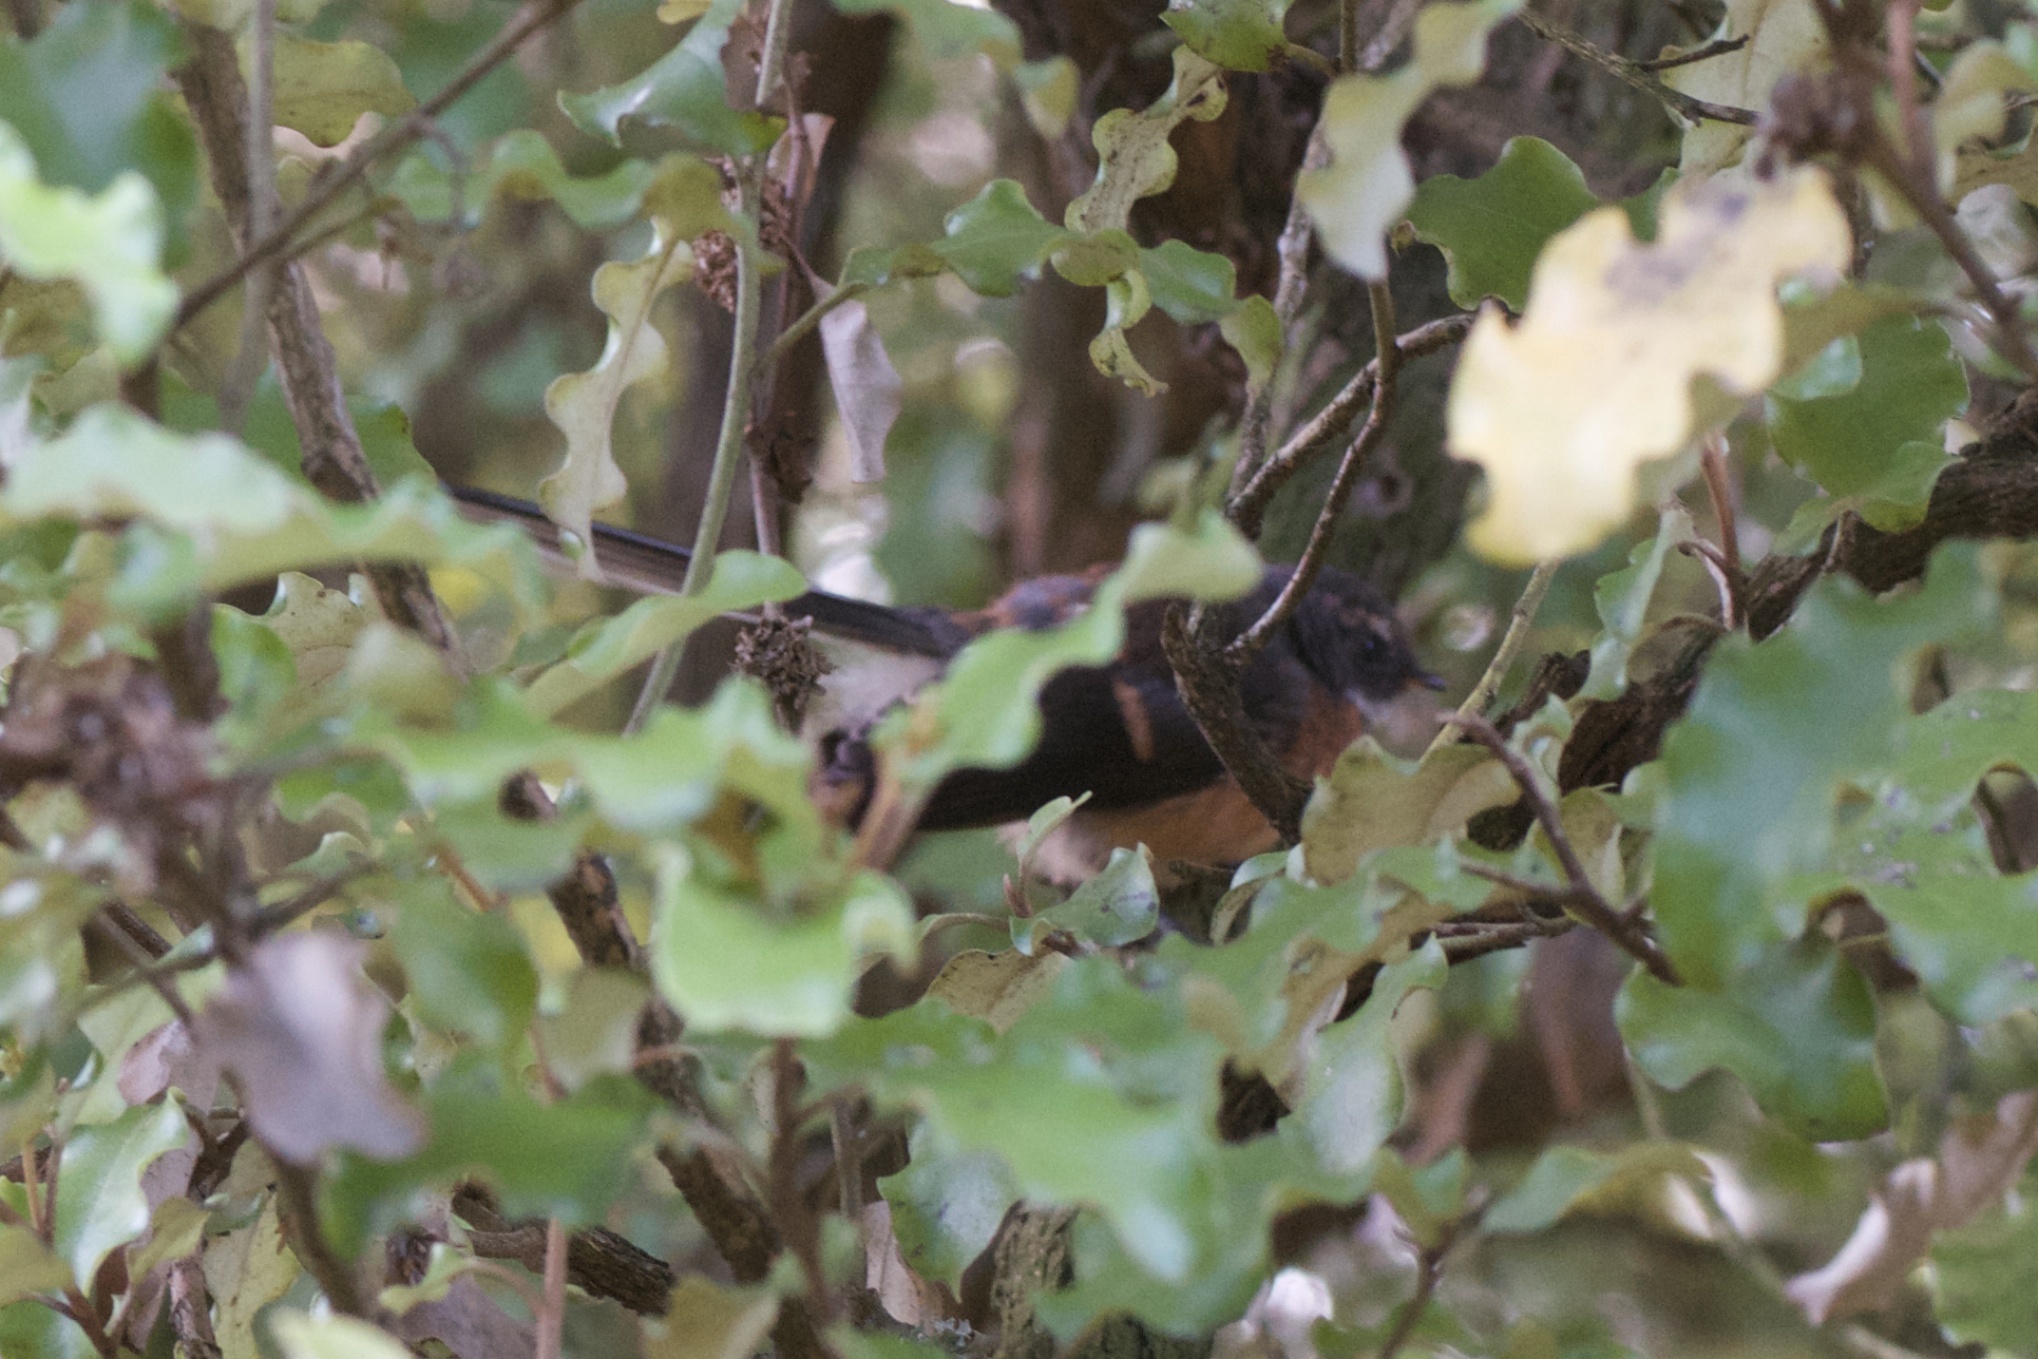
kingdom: Animalia
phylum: Chordata
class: Aves
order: Passeriformes
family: Rhipiduridae
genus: Rhipidura
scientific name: Rhipidura fuliginosa
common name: New zealand fantail
